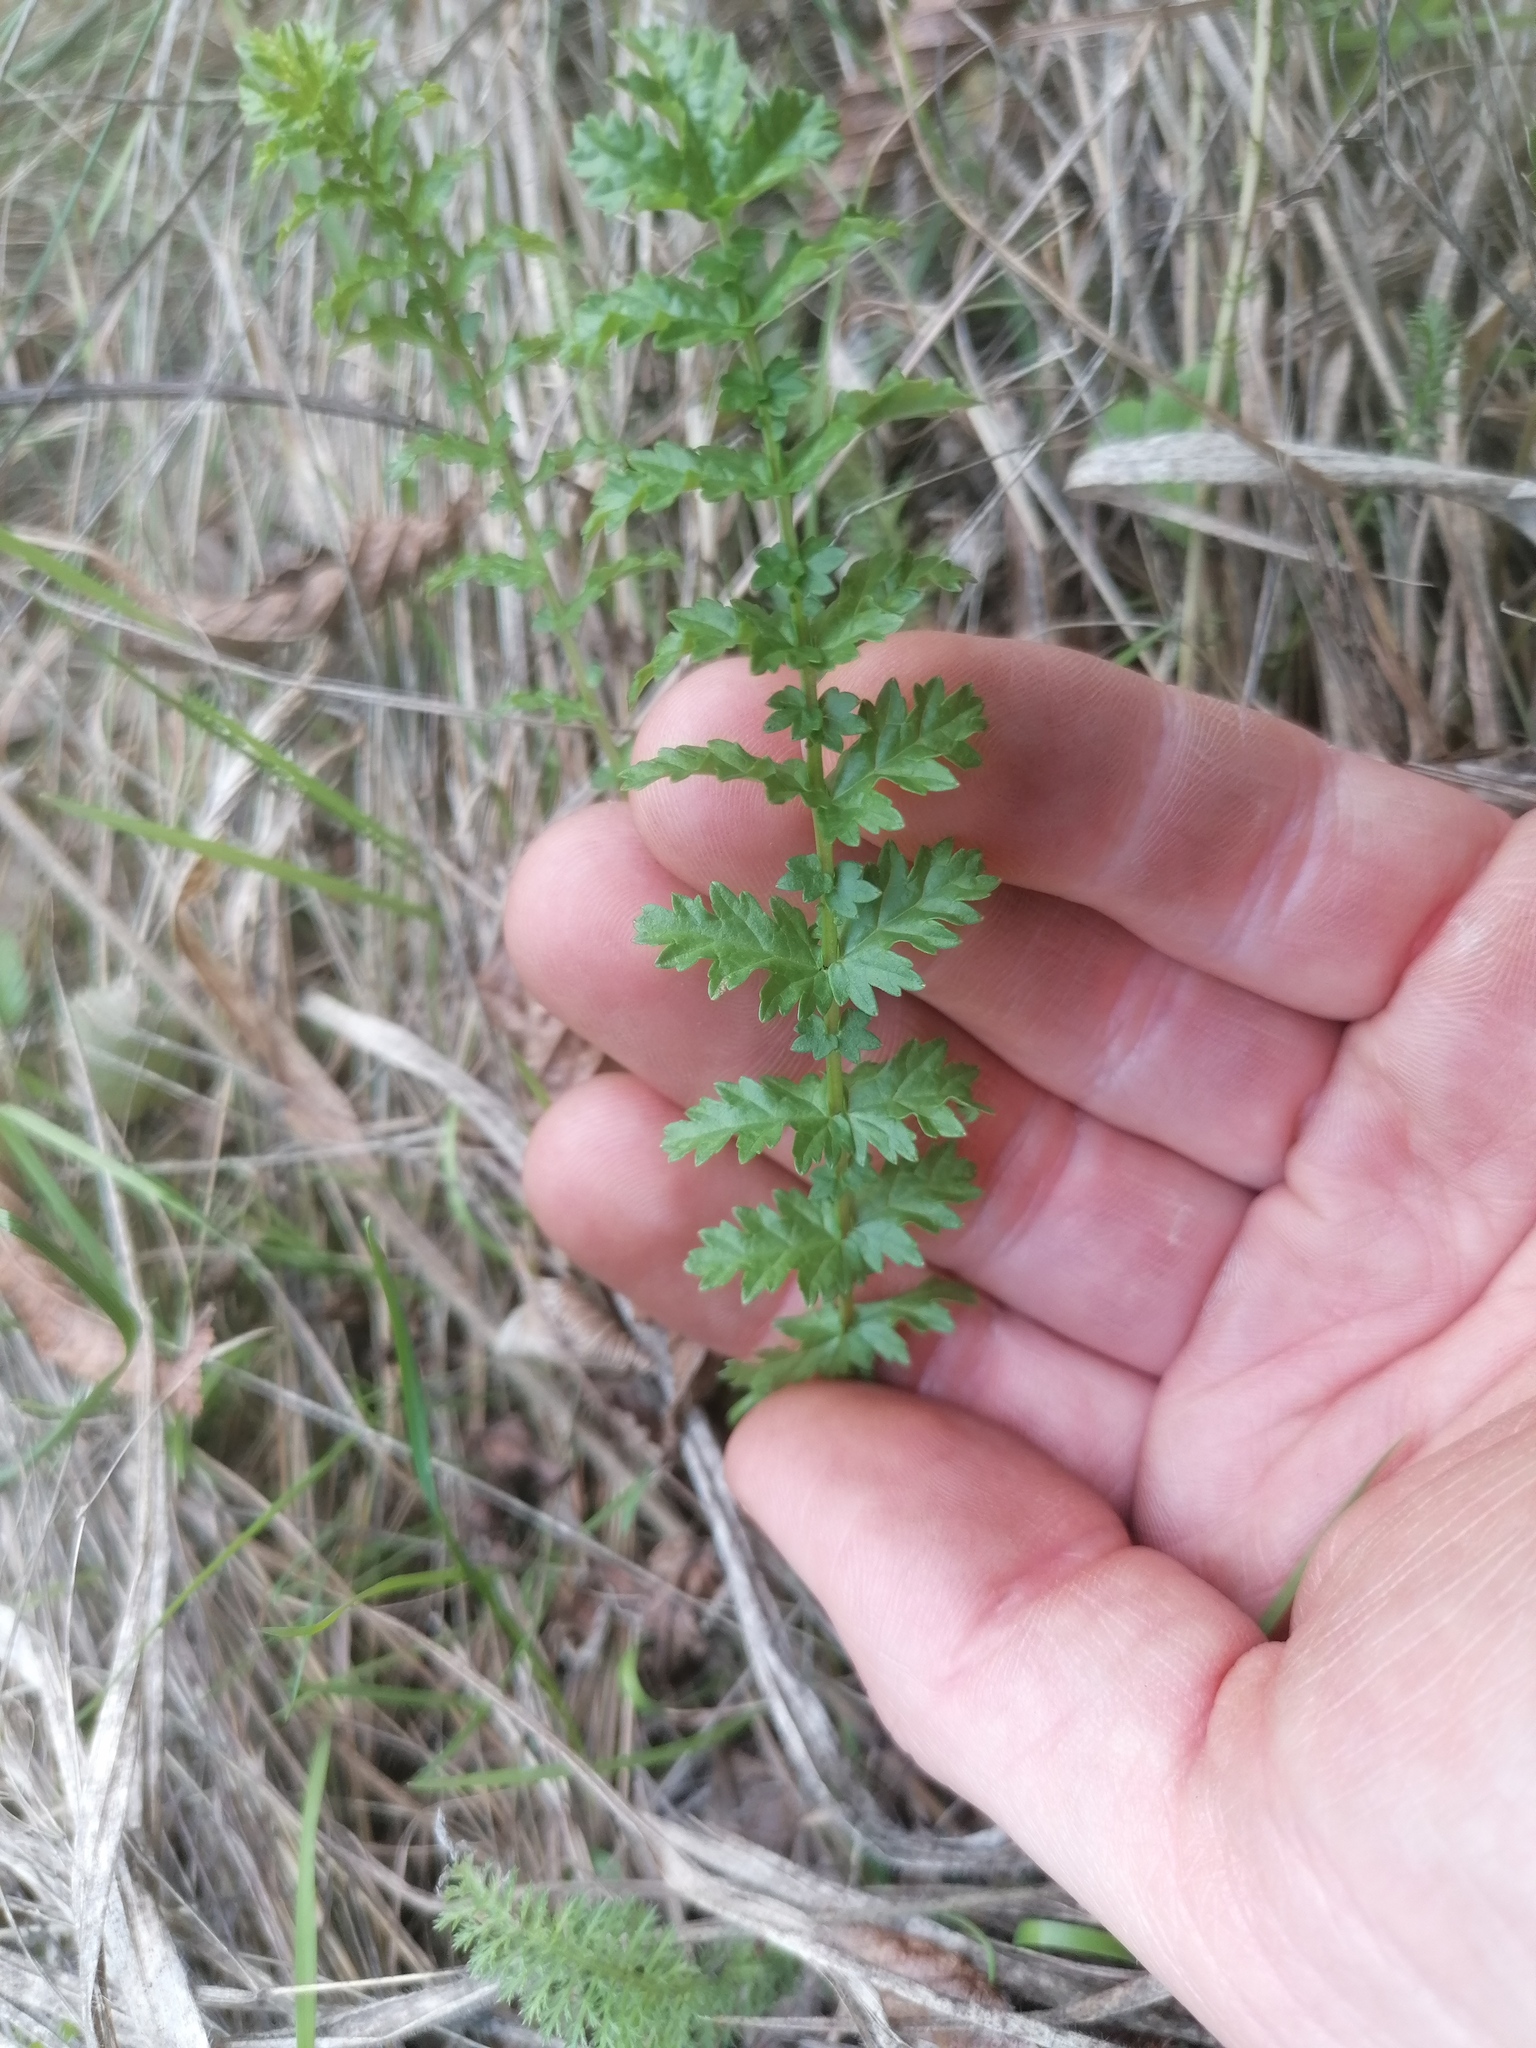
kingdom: Plantae
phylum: Tracheophyta
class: Magnoliopsida
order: Rosales
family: Rosaceae
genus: Filipendula
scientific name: Filipendula vulgaris
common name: Dropwort
